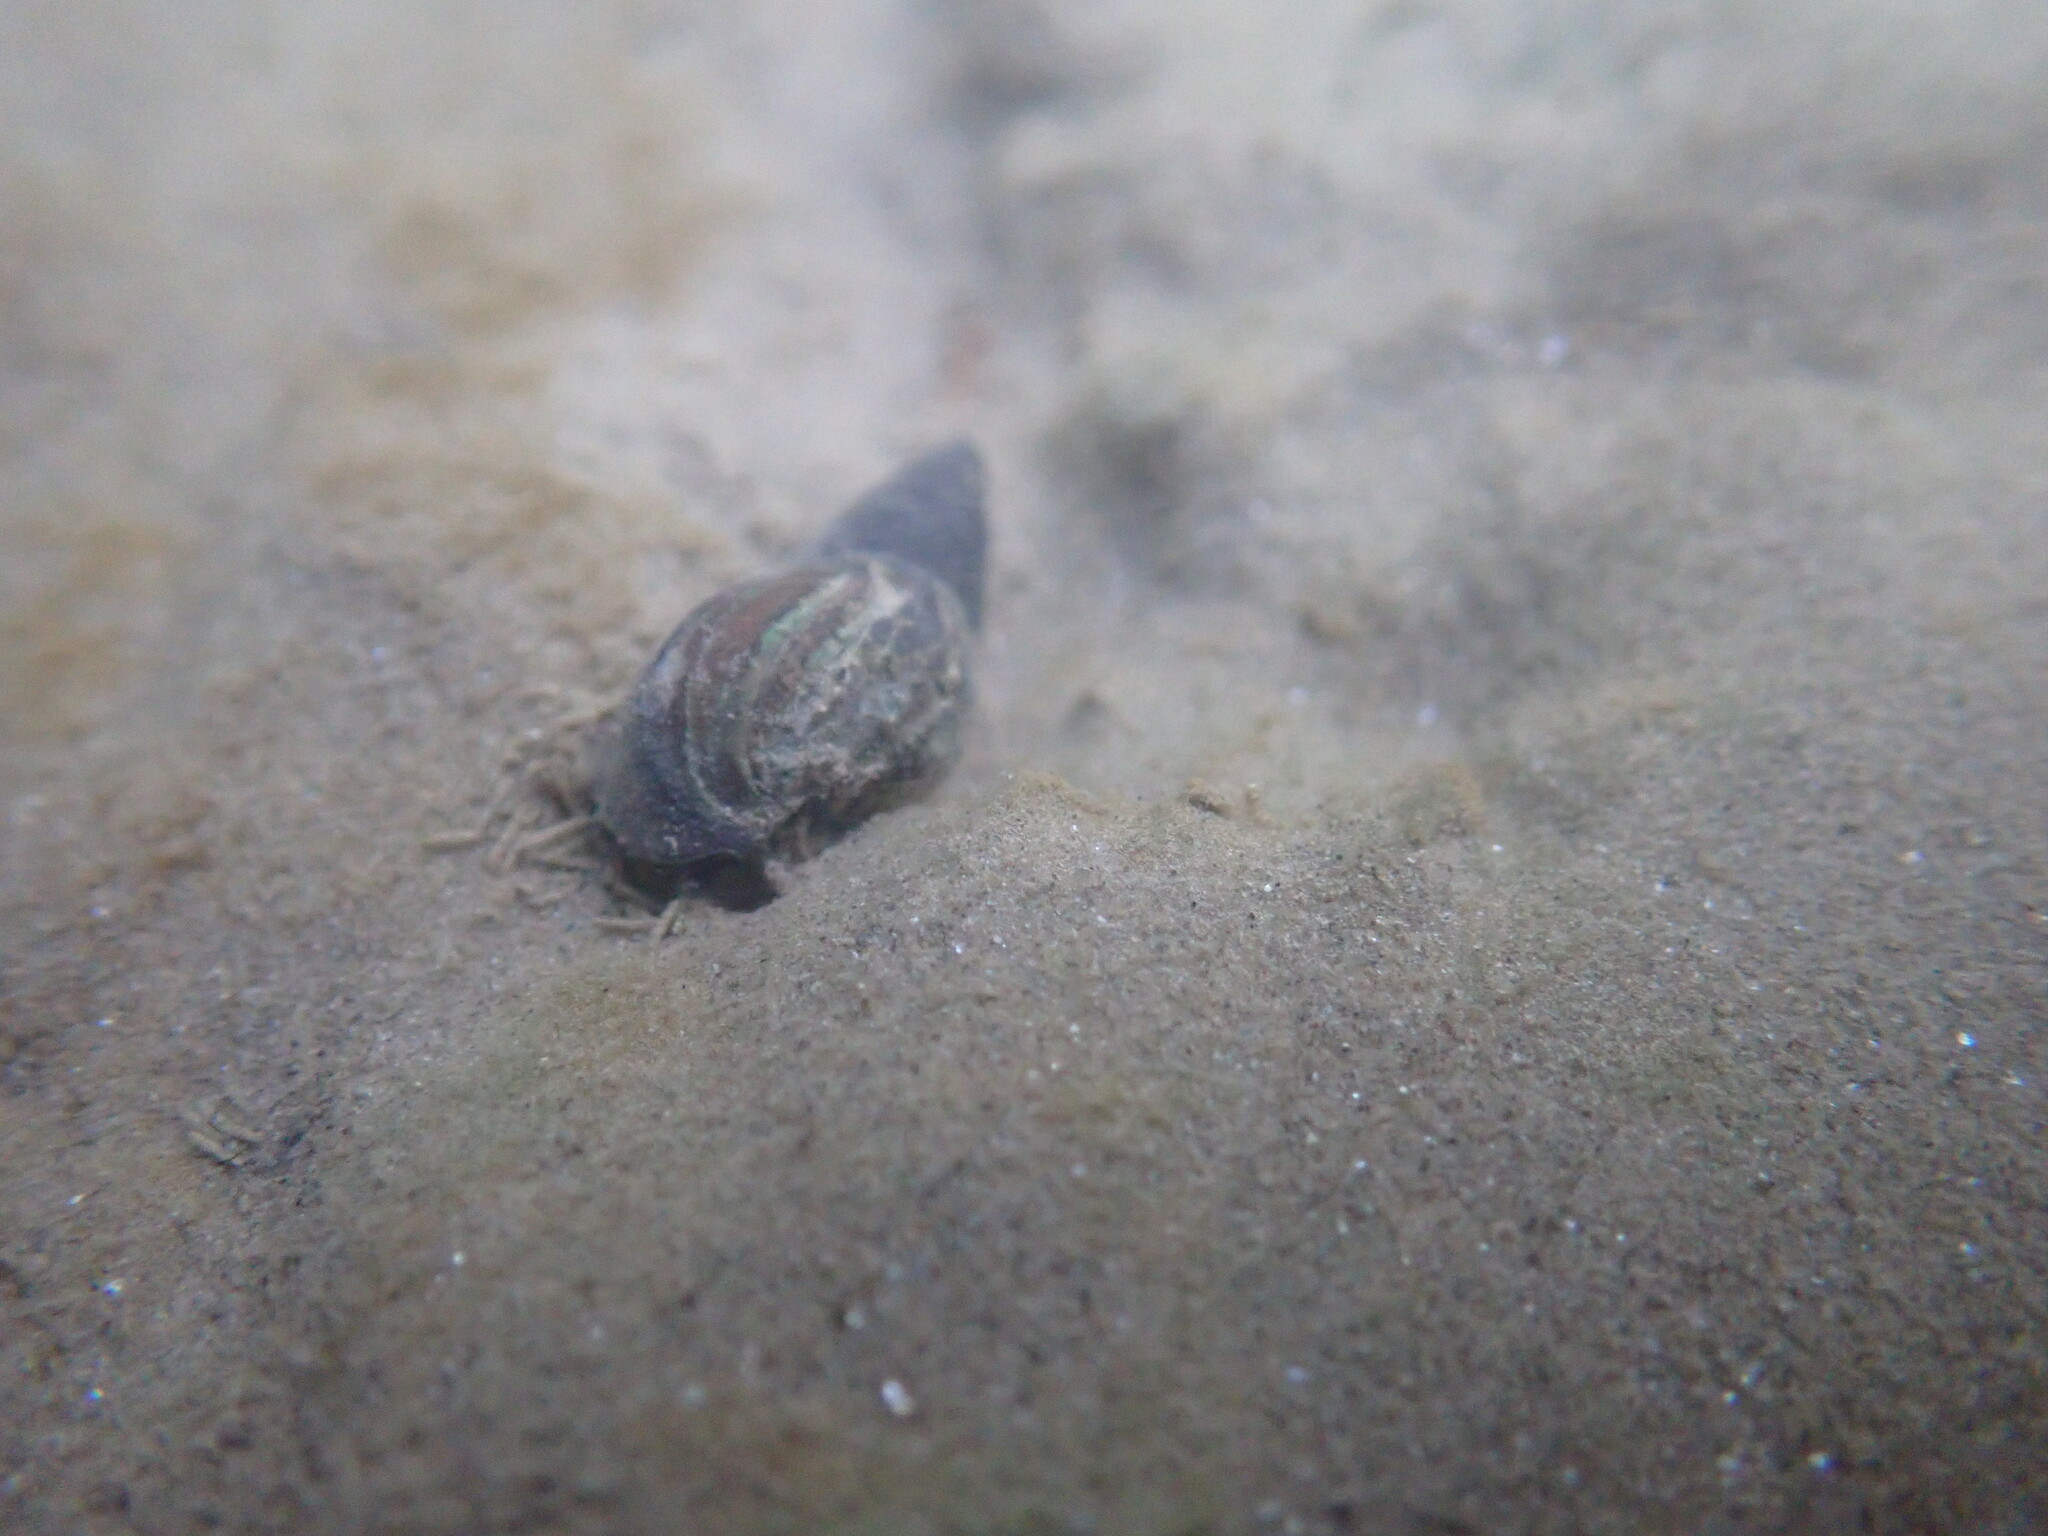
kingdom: Animalia
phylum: Mollusca
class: Gastropoda
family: Melanopsidae
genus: Esperiana
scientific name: Esperiana esperi
